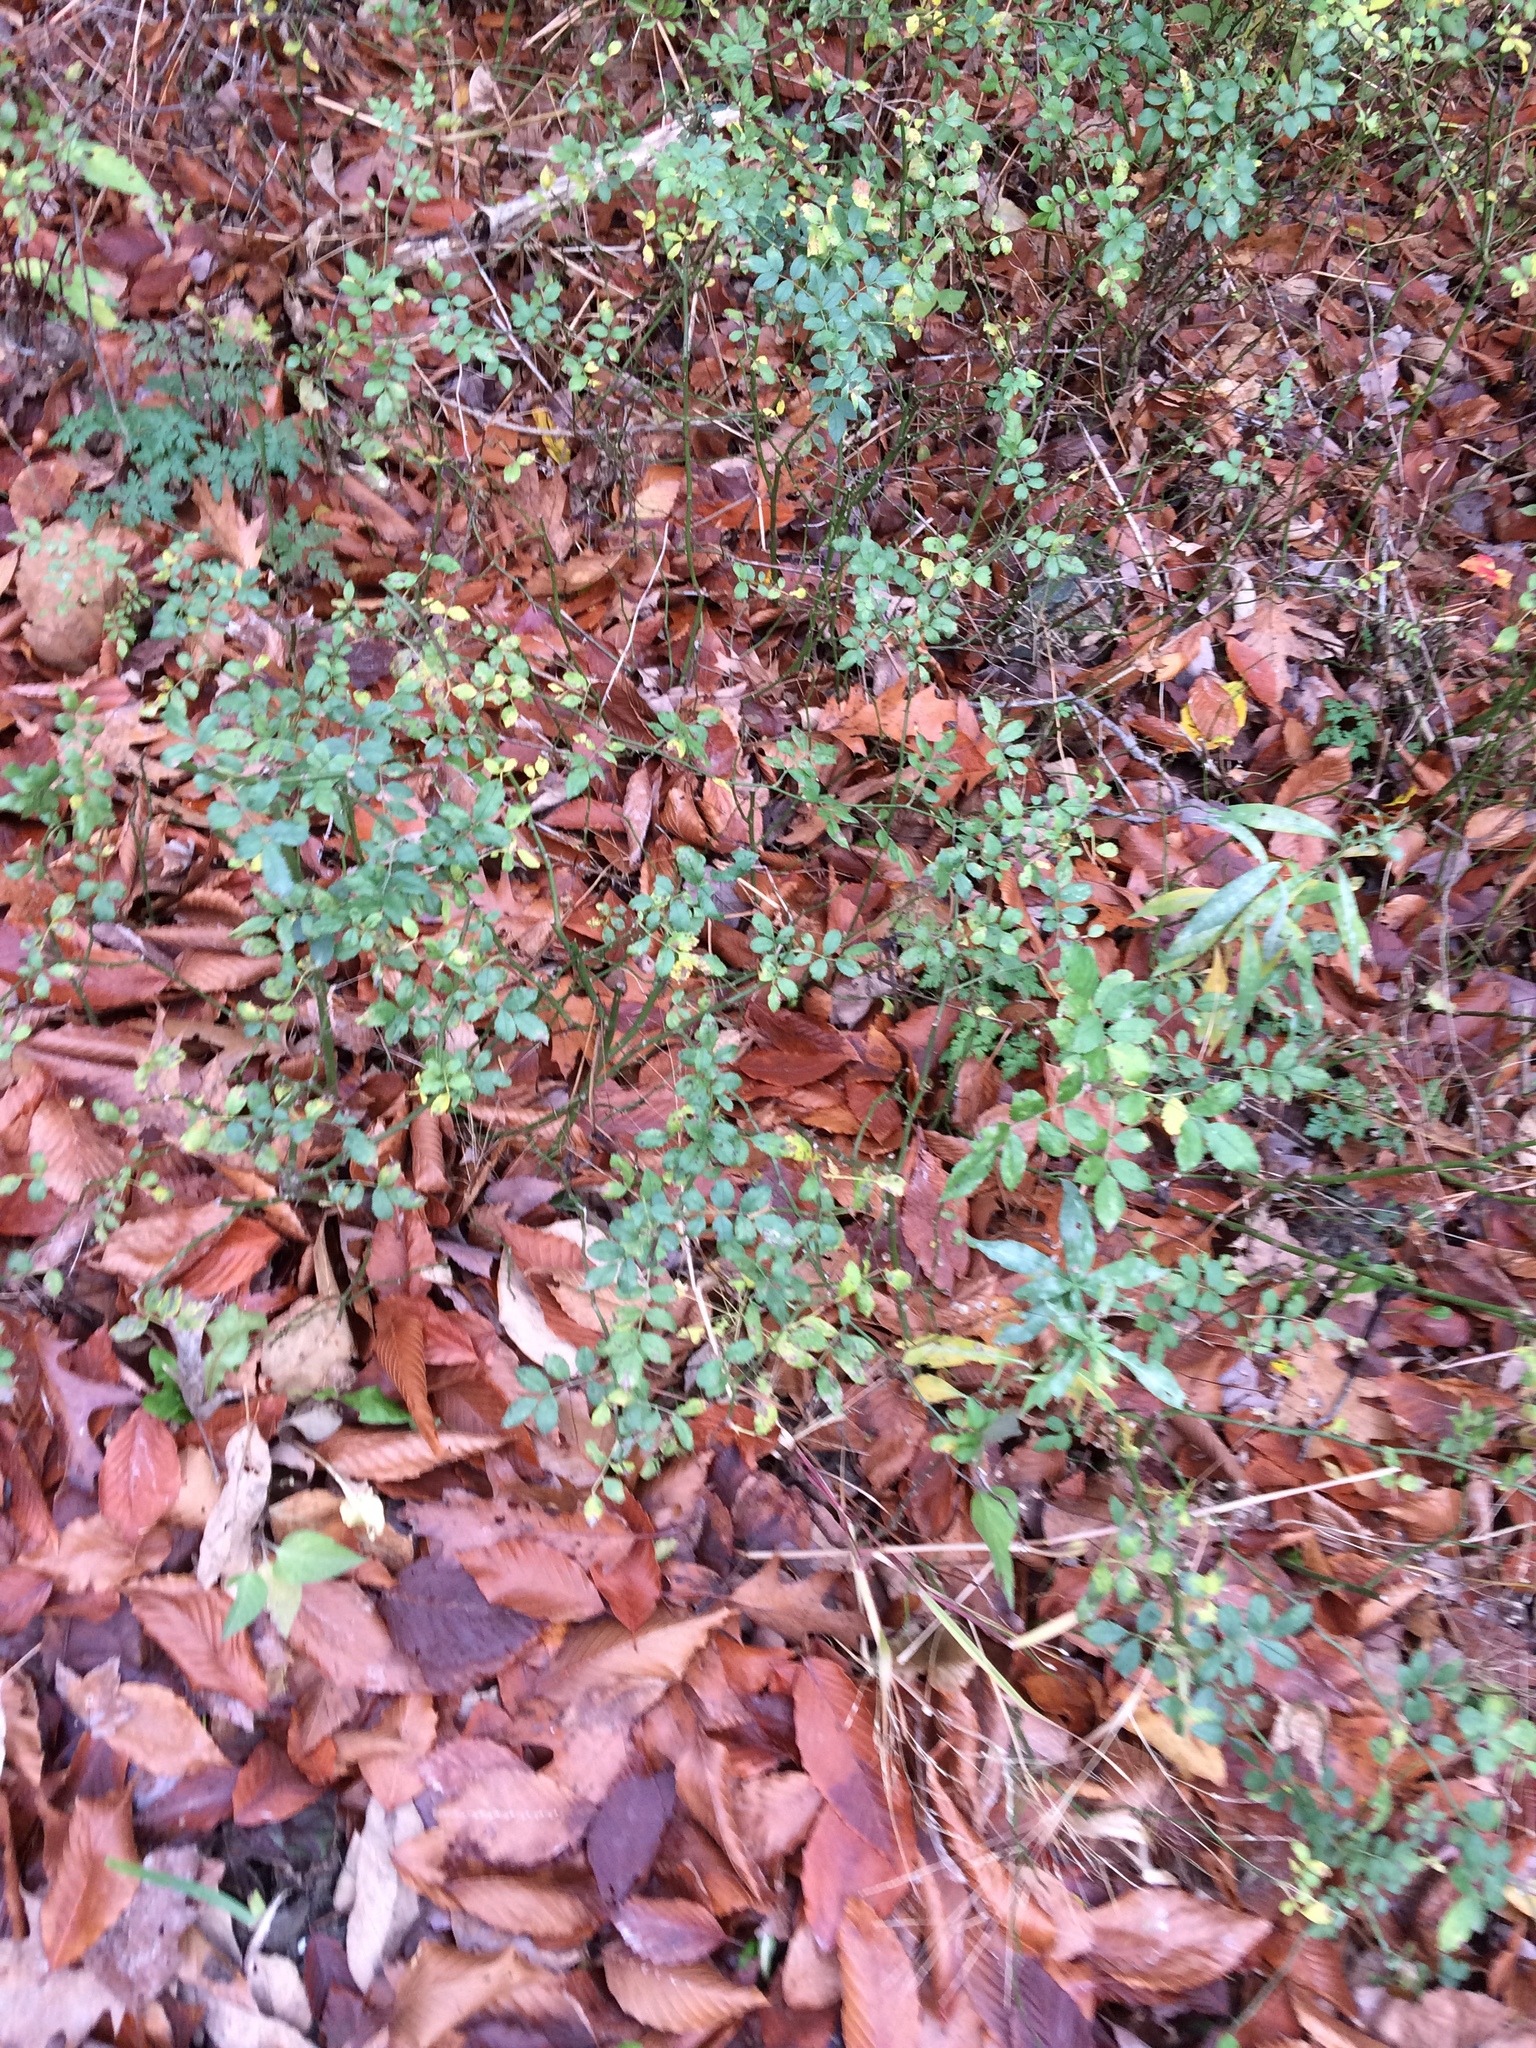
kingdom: Plantae
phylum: Tracheophyta
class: Magnoliopsida
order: Rosales
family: Rosaceae
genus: Rosa
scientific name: Rosa multiflora
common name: Multiflora rose
